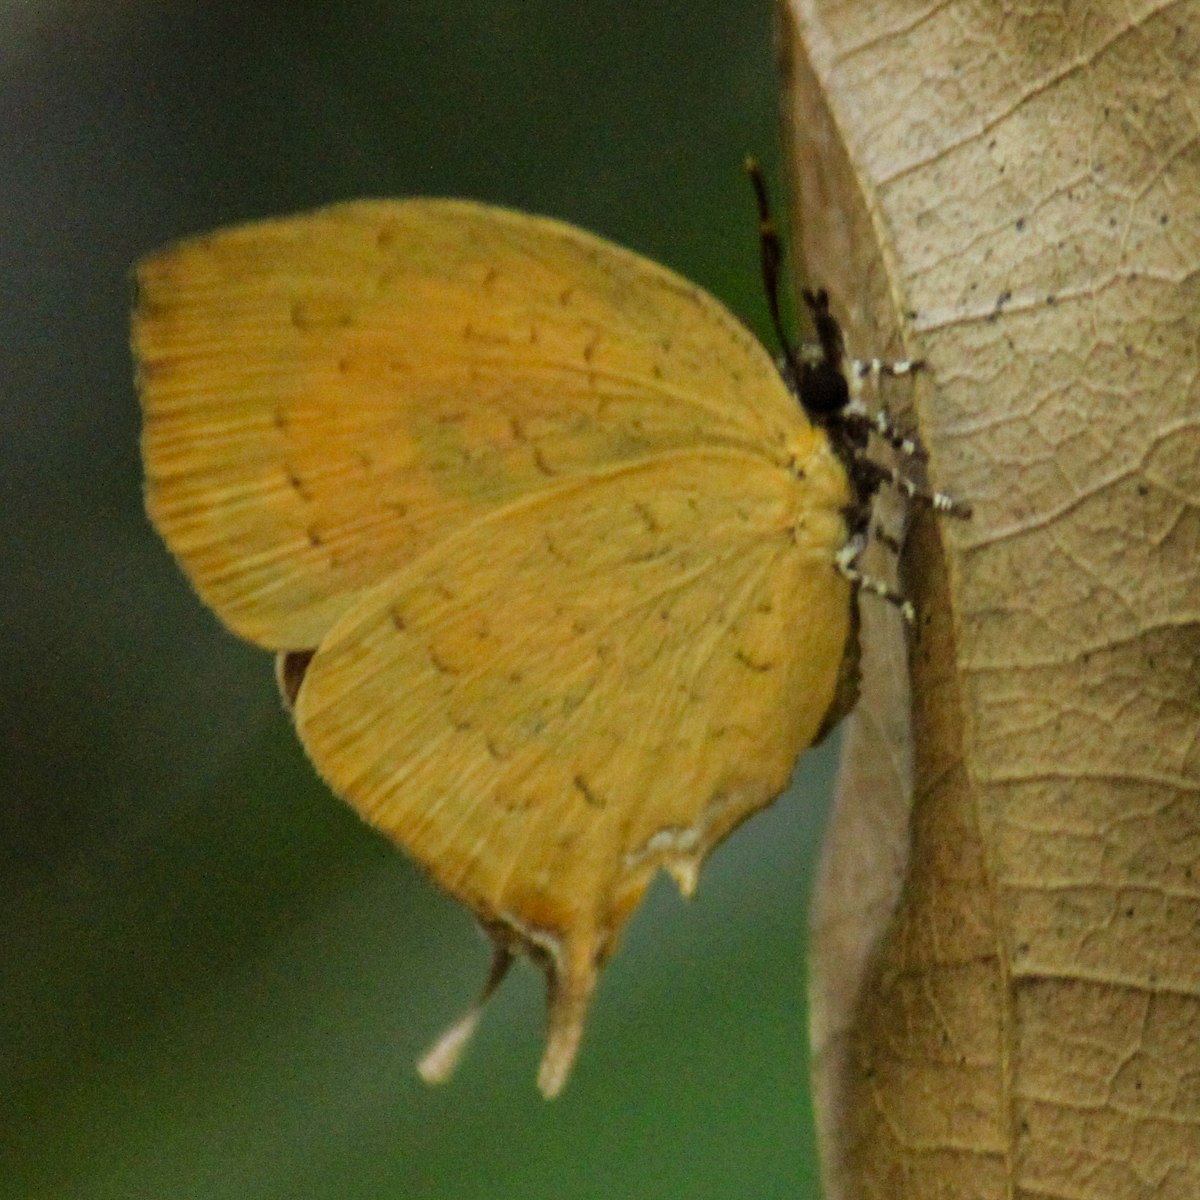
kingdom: Animalia
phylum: Arthropoda
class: Insecta
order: Lepidoptera
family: Lycaenidae
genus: Yasoda
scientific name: Yasoda tripunctata
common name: Branded yamfly
